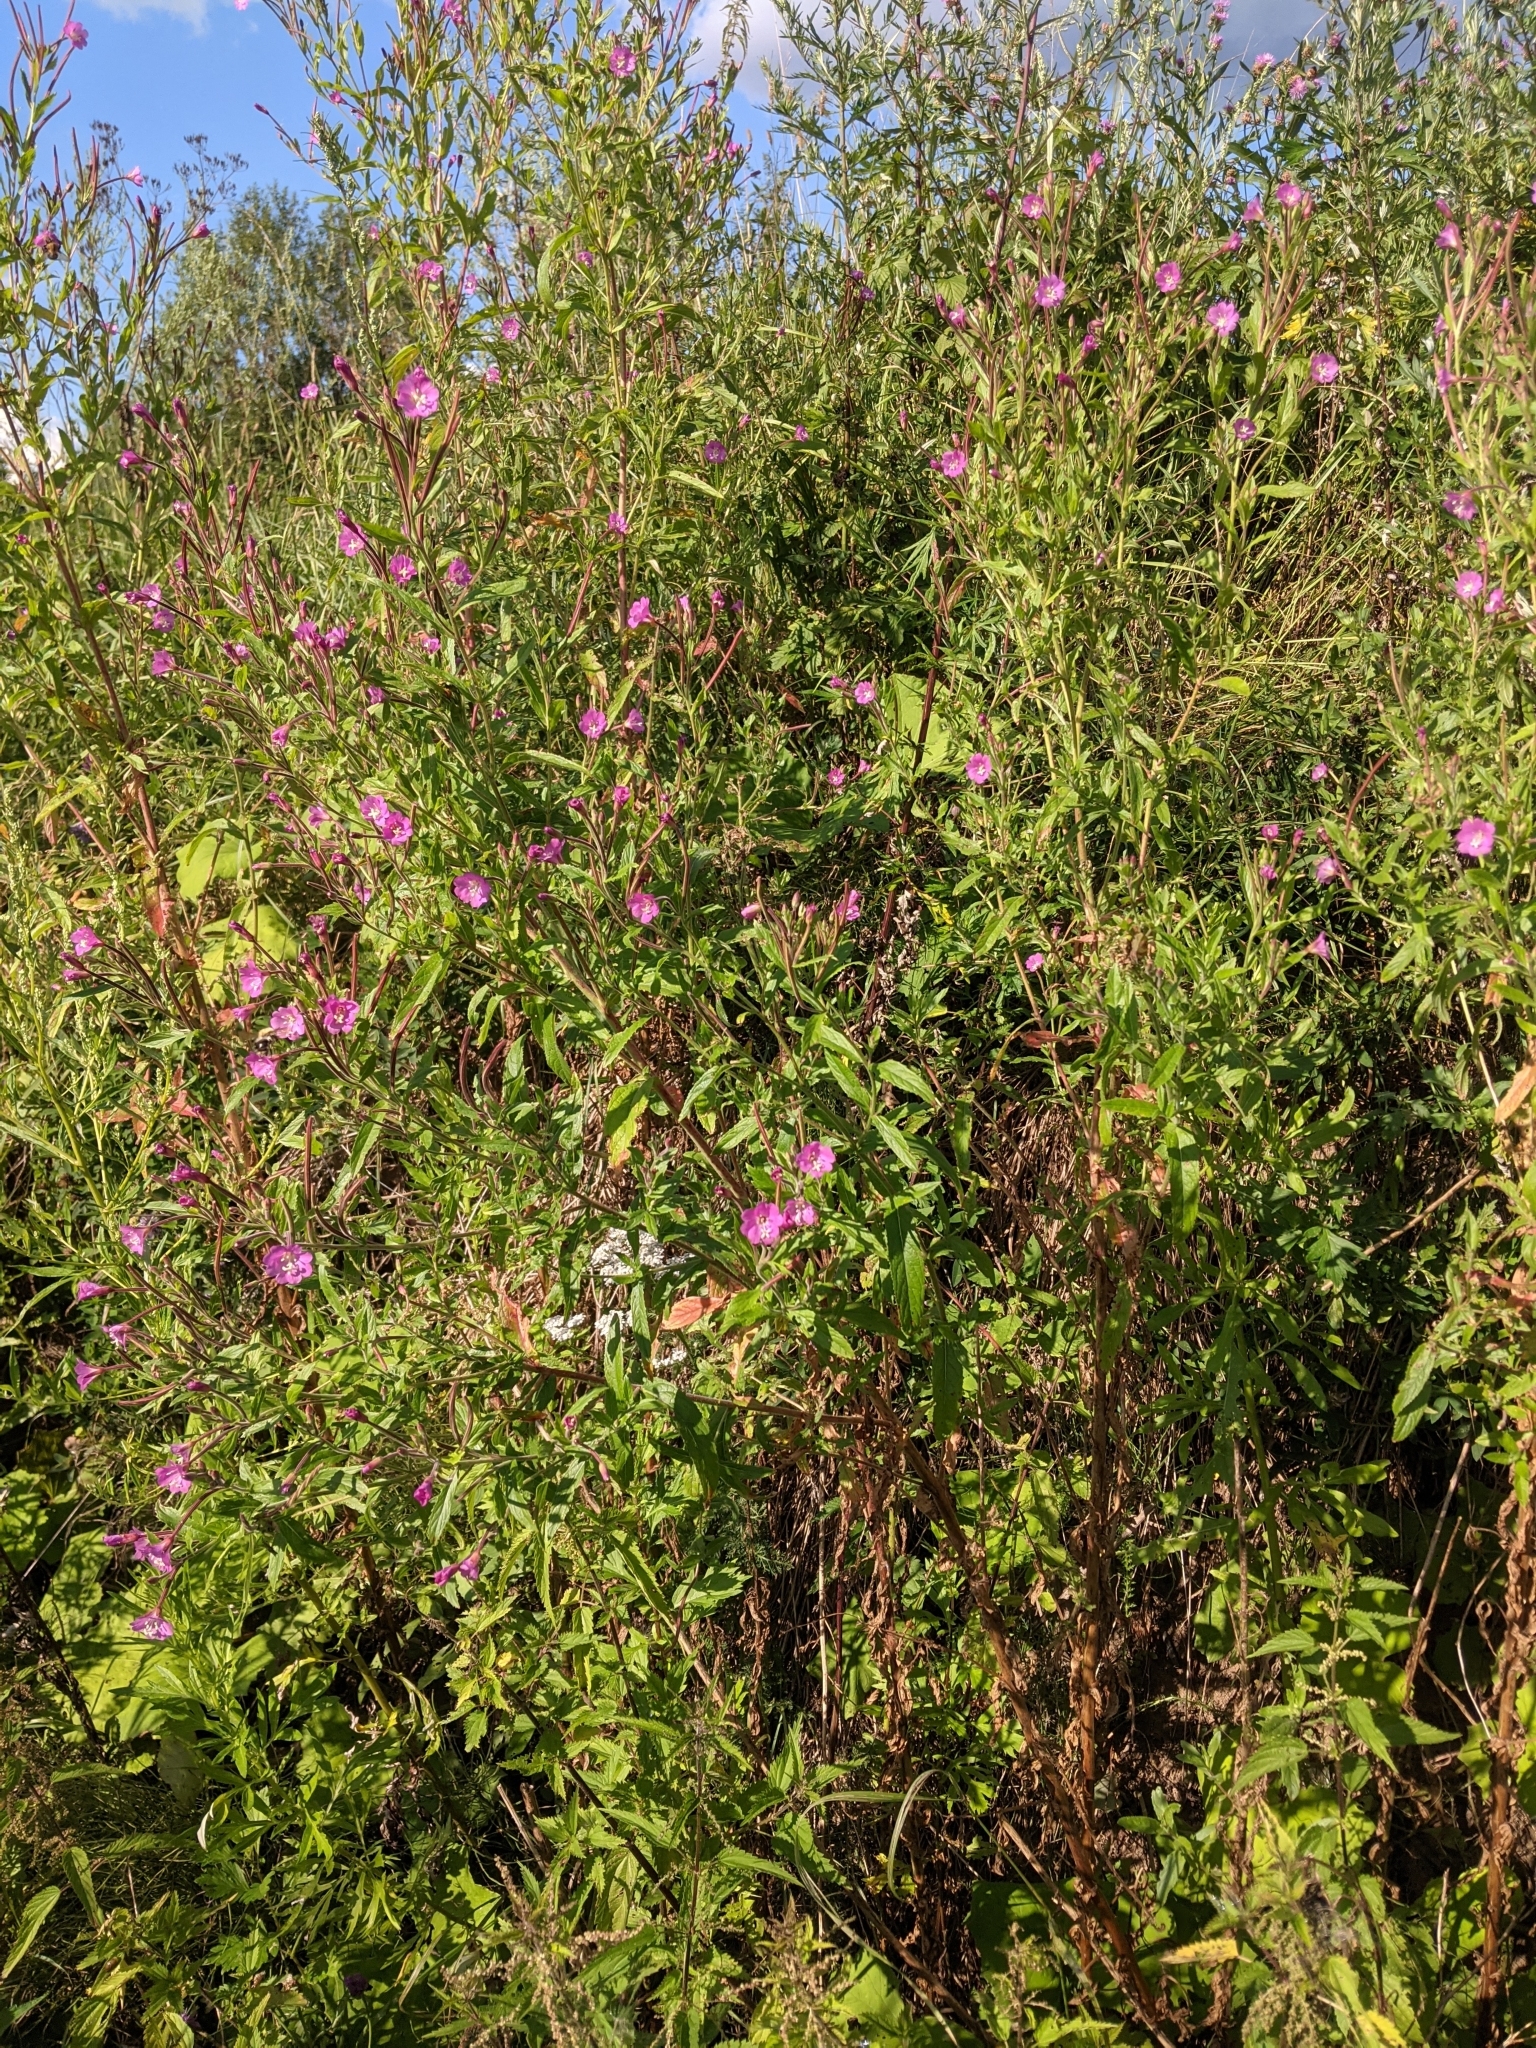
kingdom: Plantae
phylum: Tracheophyta
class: Magnoliopsida
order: Myrtales
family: Onagraceae
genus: Epilobium
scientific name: Epilobium hirsutum
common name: Great willowherb
